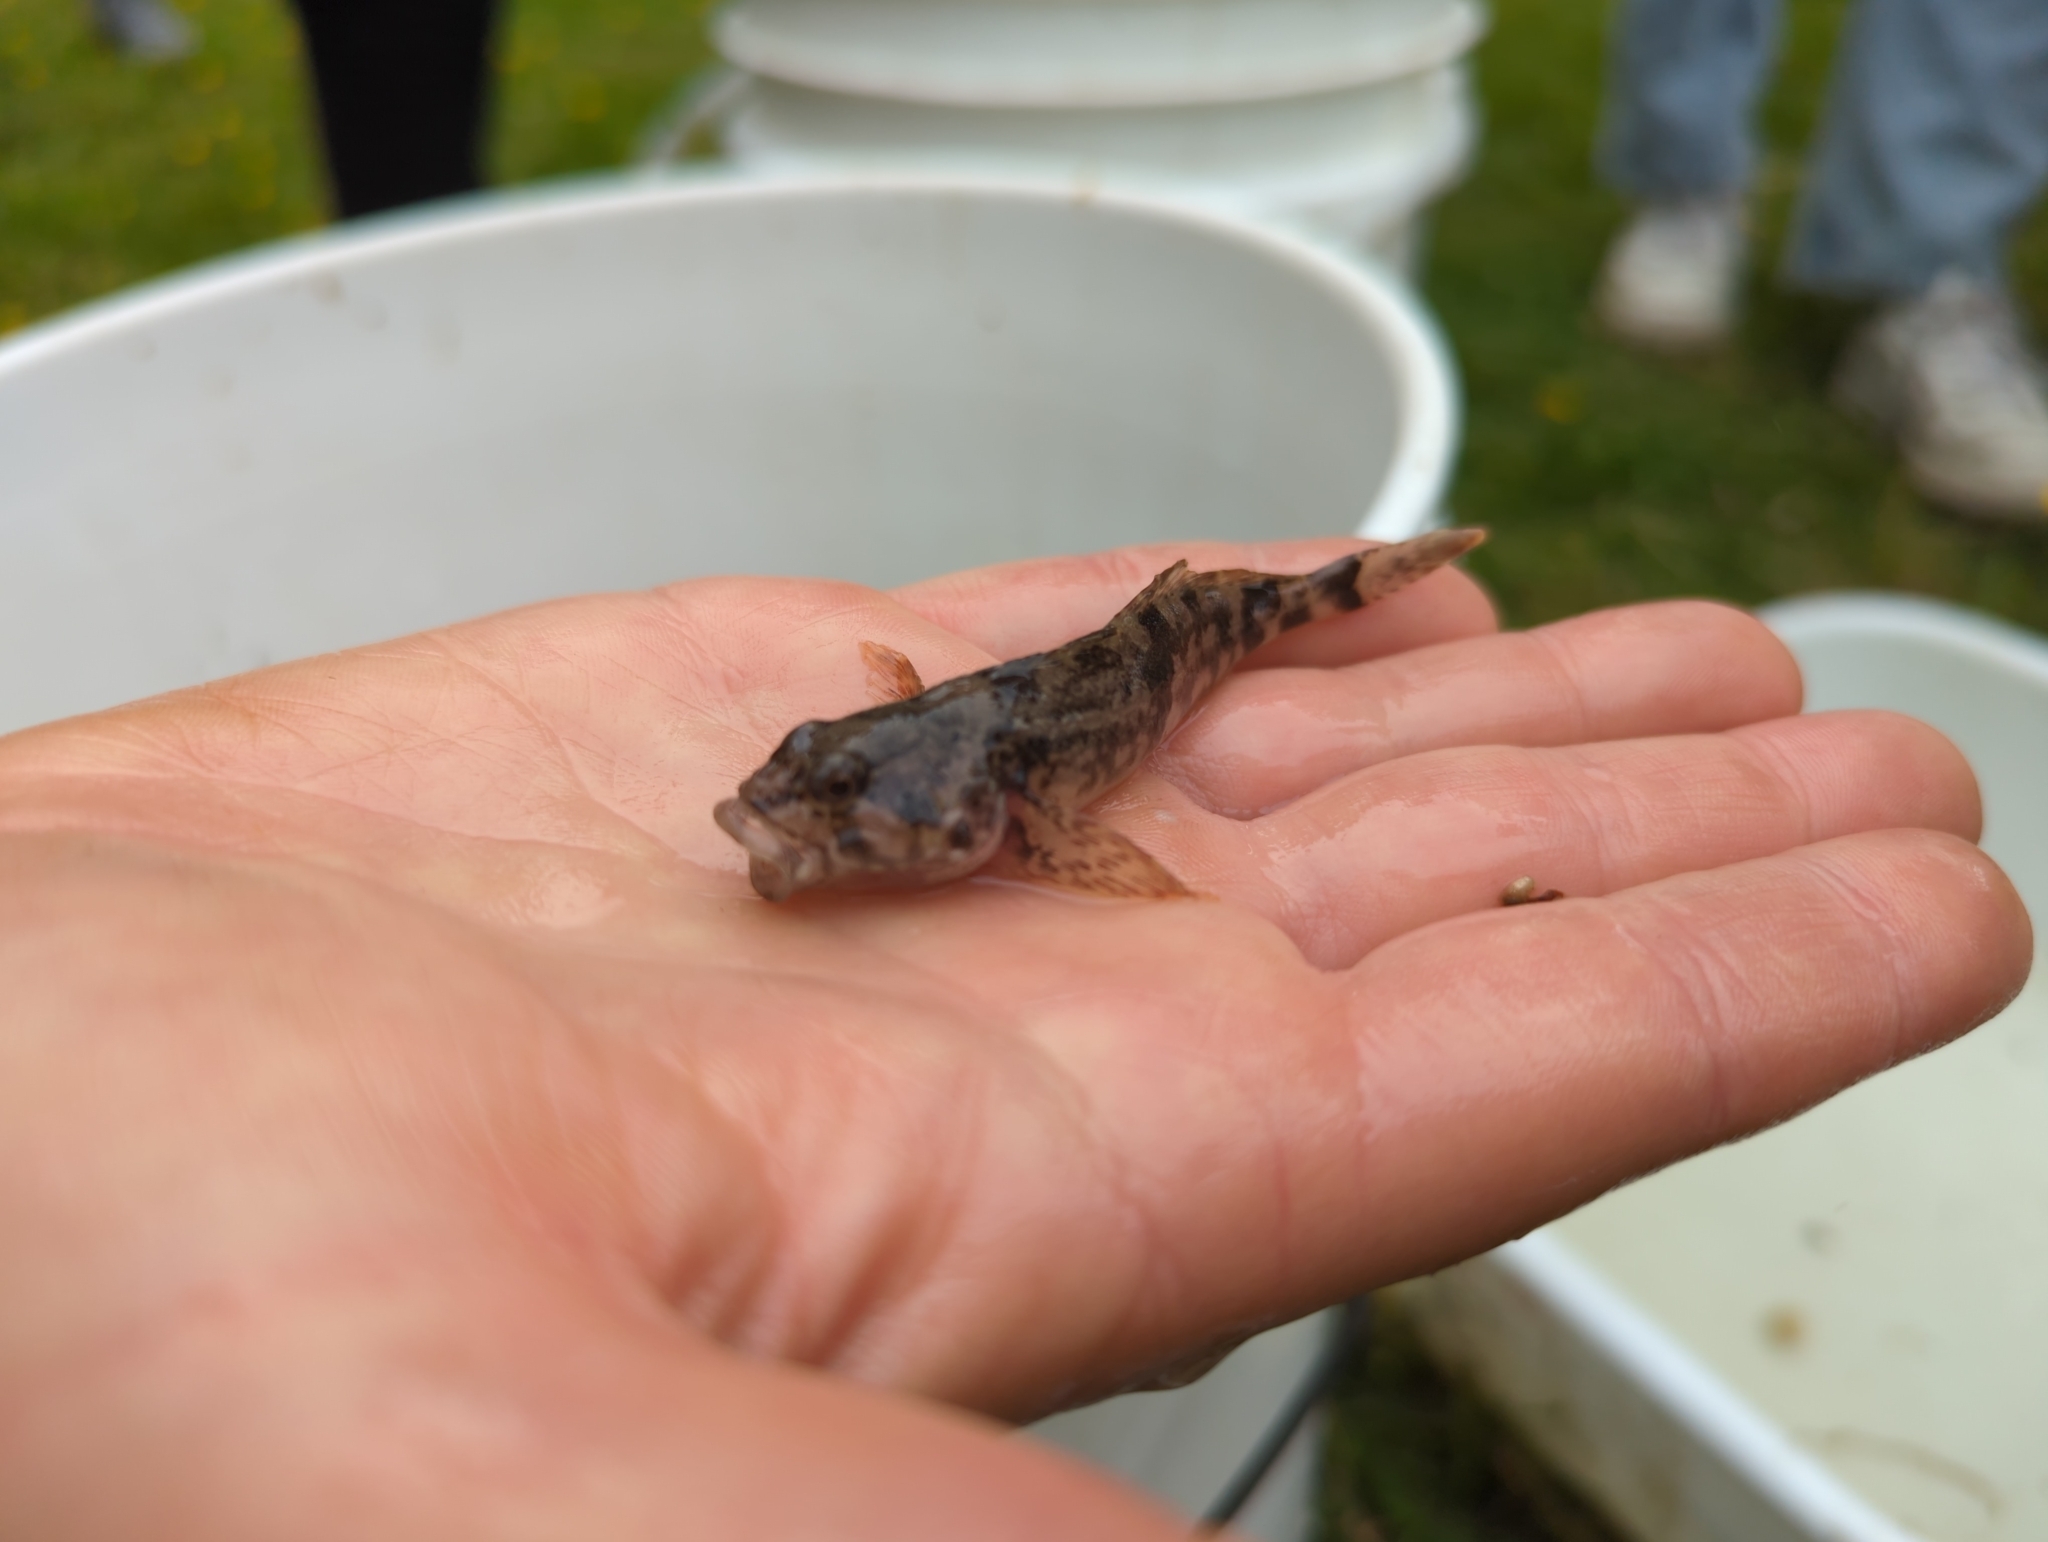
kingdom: Animalia
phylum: Chordata
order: Scorpaeniformes
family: Cottidae
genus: Cottus
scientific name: Cottus asper
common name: Prickly sculpin
